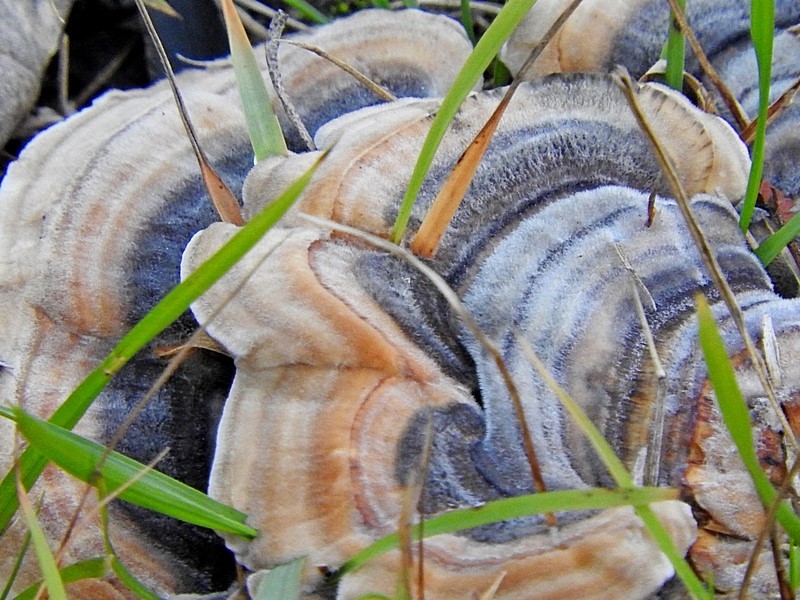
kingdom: Fungi
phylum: Basidiomycota
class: Agaricomycetes
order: Polyporales
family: Polyporaceae
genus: Trametes
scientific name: Trametes versicolor
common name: Turkeytail
